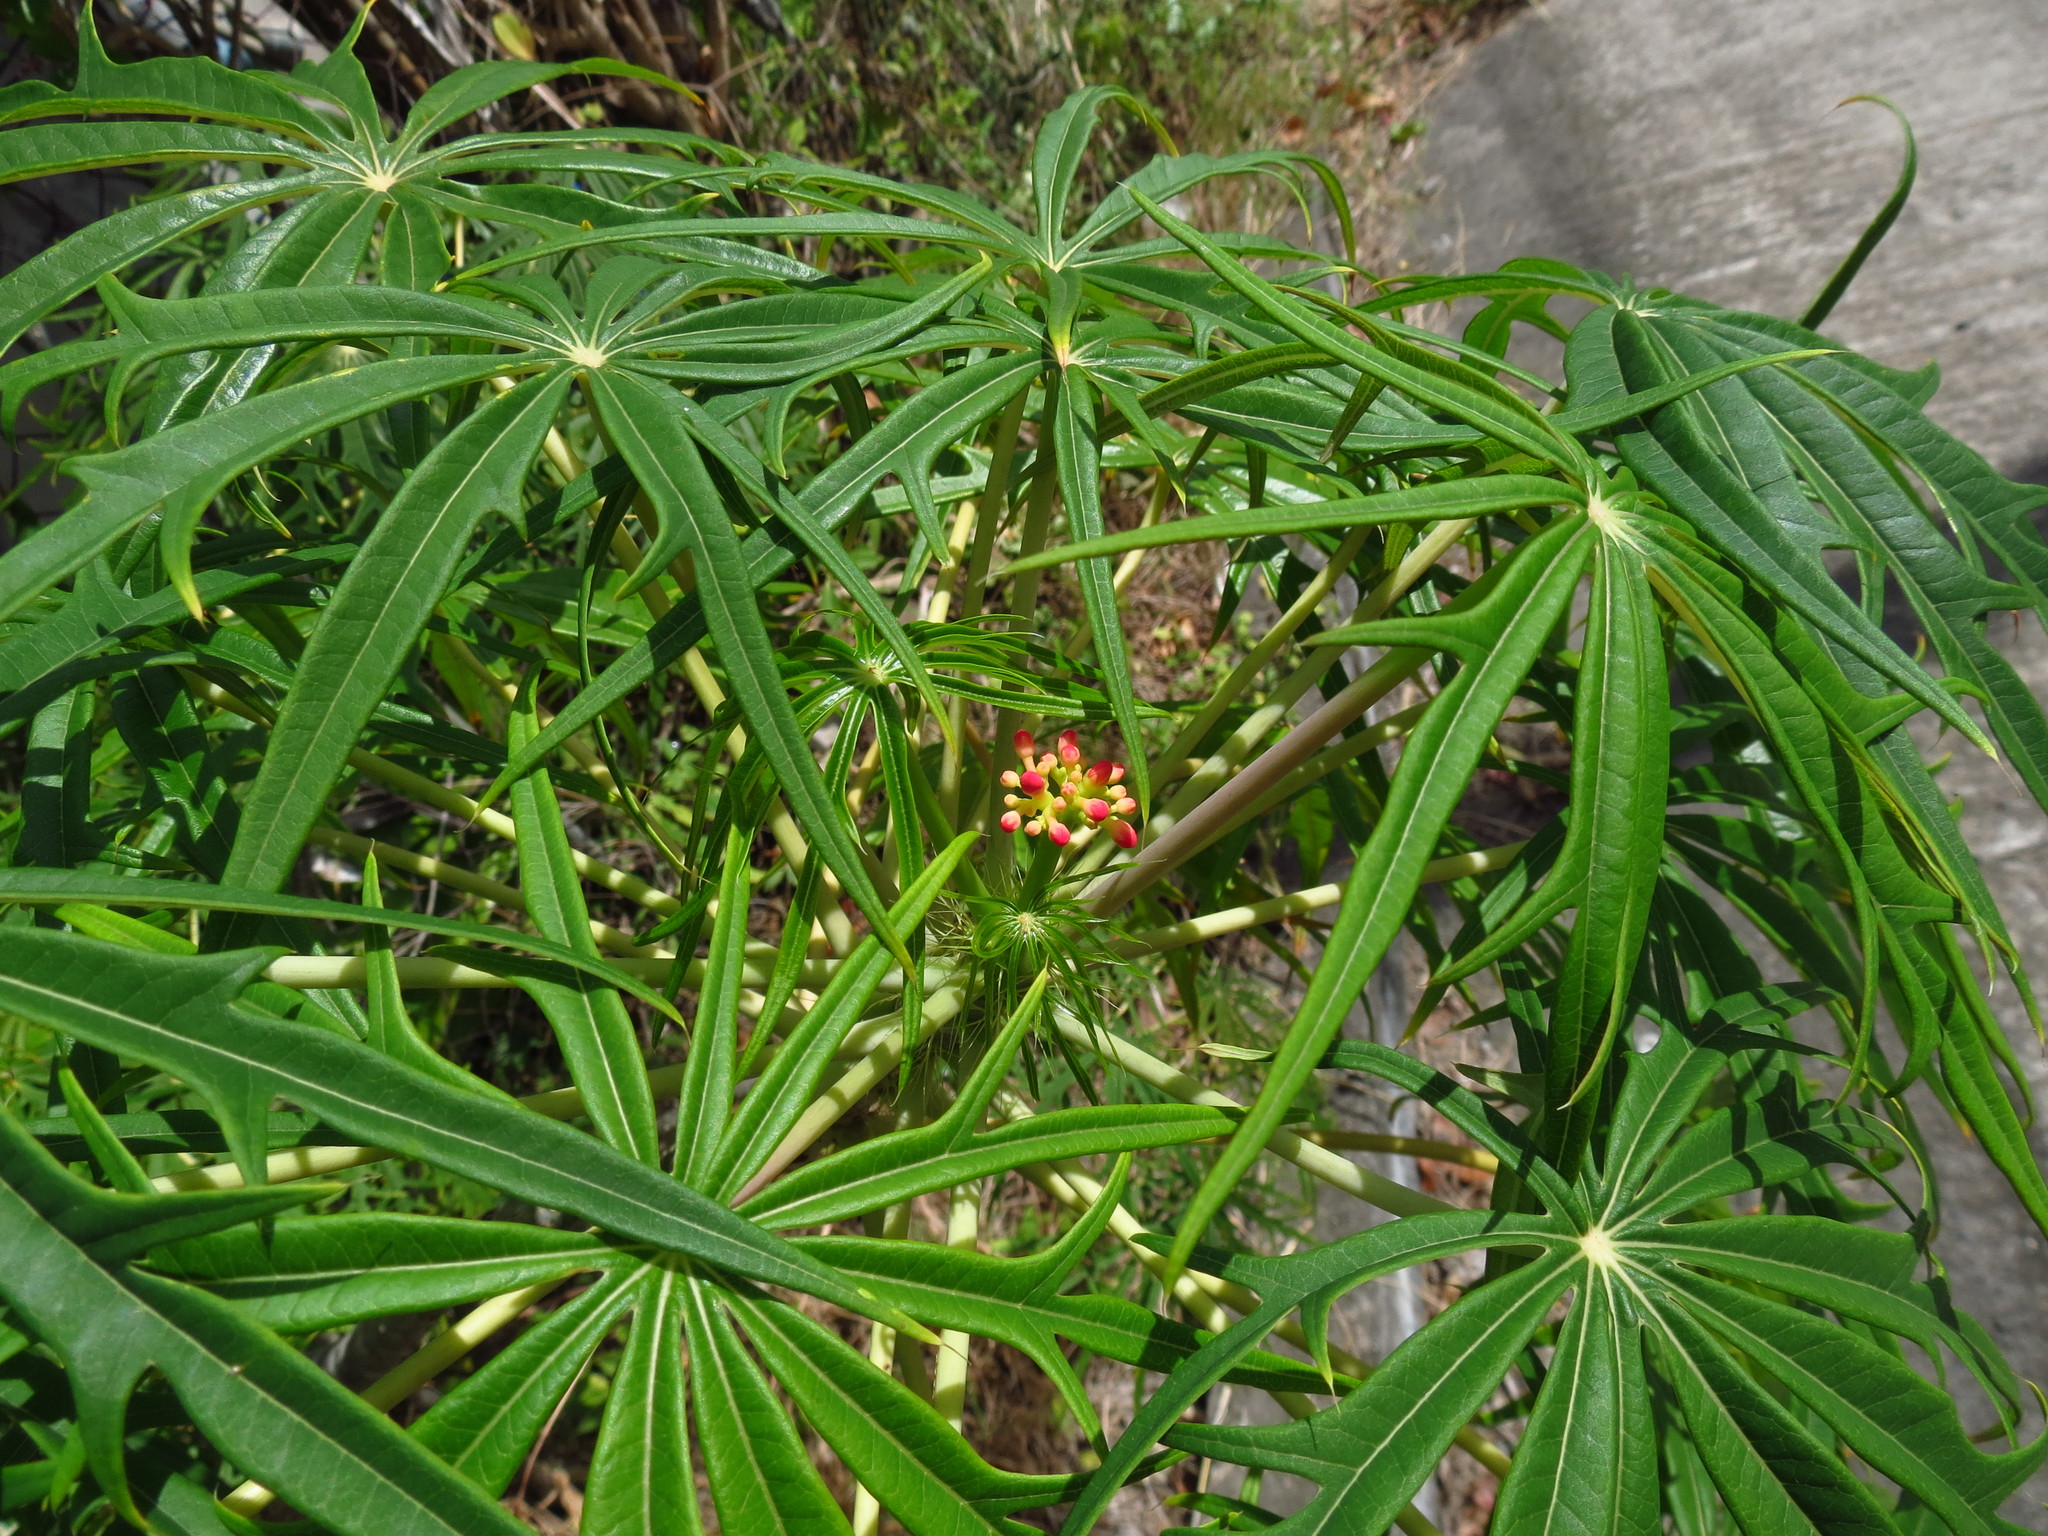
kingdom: Plantae
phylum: Tracheophyta
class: Magnoliopsida
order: Malpighiales
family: Euphorbiaceae
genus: Jatropha
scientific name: Jatropha multifida
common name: Coralbush
